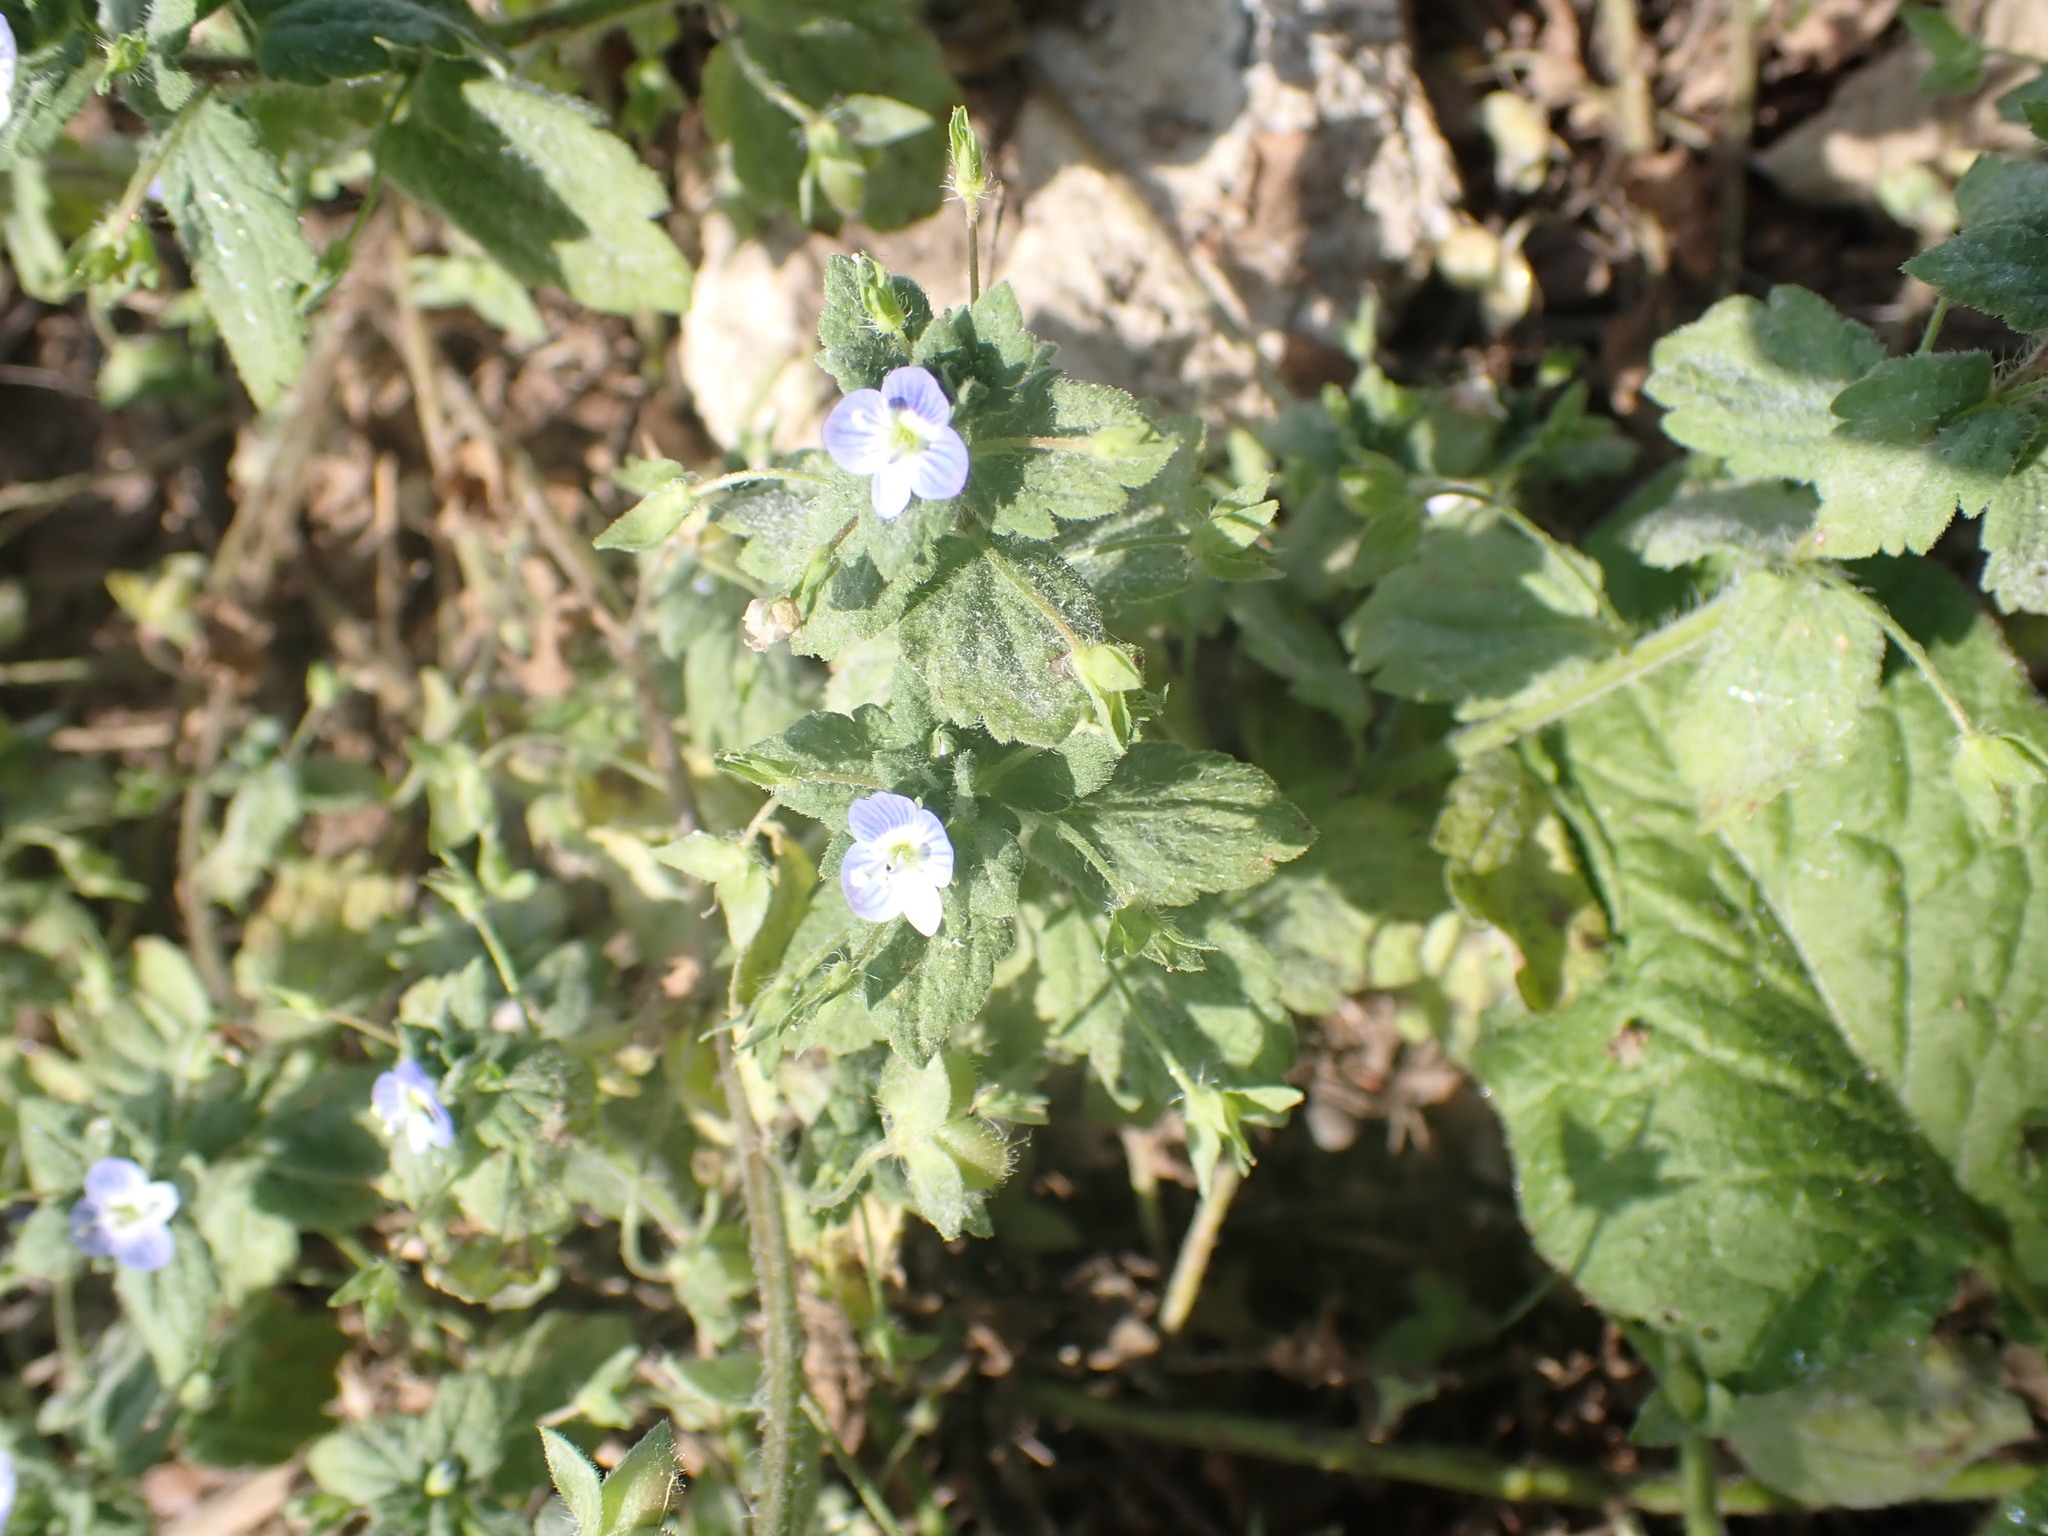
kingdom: Plantae
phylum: Tracheophyta
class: Magnoliopsida
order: Lamiales
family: Plantaginaceae
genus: Veronica
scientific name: Veronica persica
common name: Common field-speedwell
